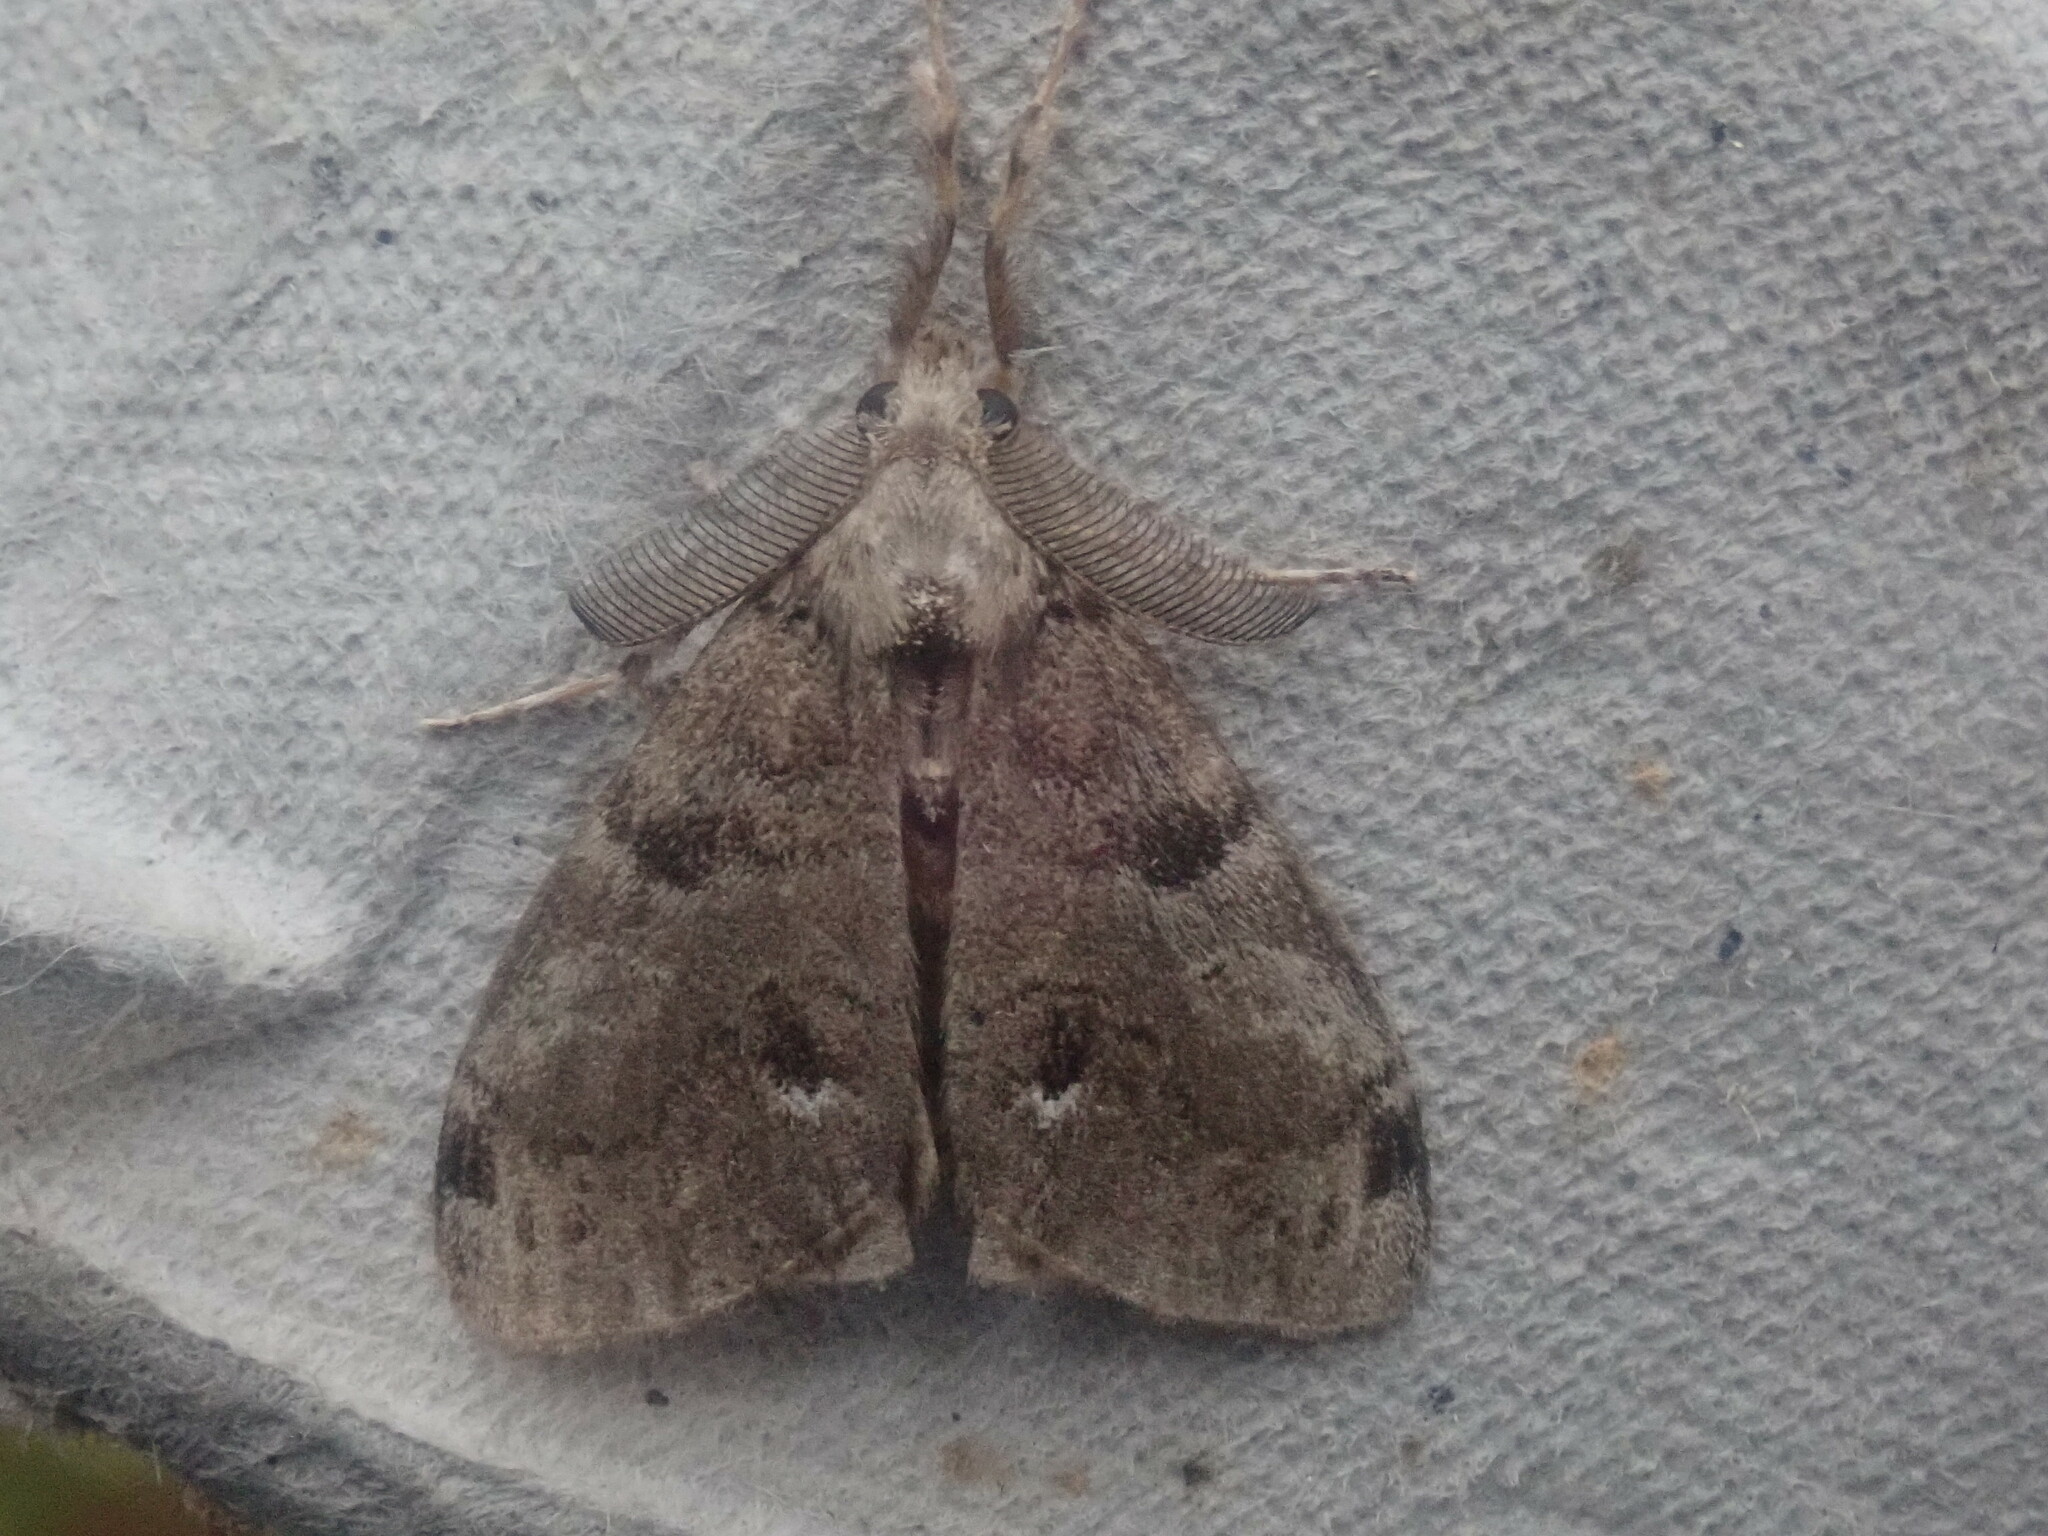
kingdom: Animalia
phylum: Arthropoda
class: Insecta
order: Lepidoptera
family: Erebidae
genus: Orgyia
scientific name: Orgyia leucostigma
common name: White-marked tussock moth
